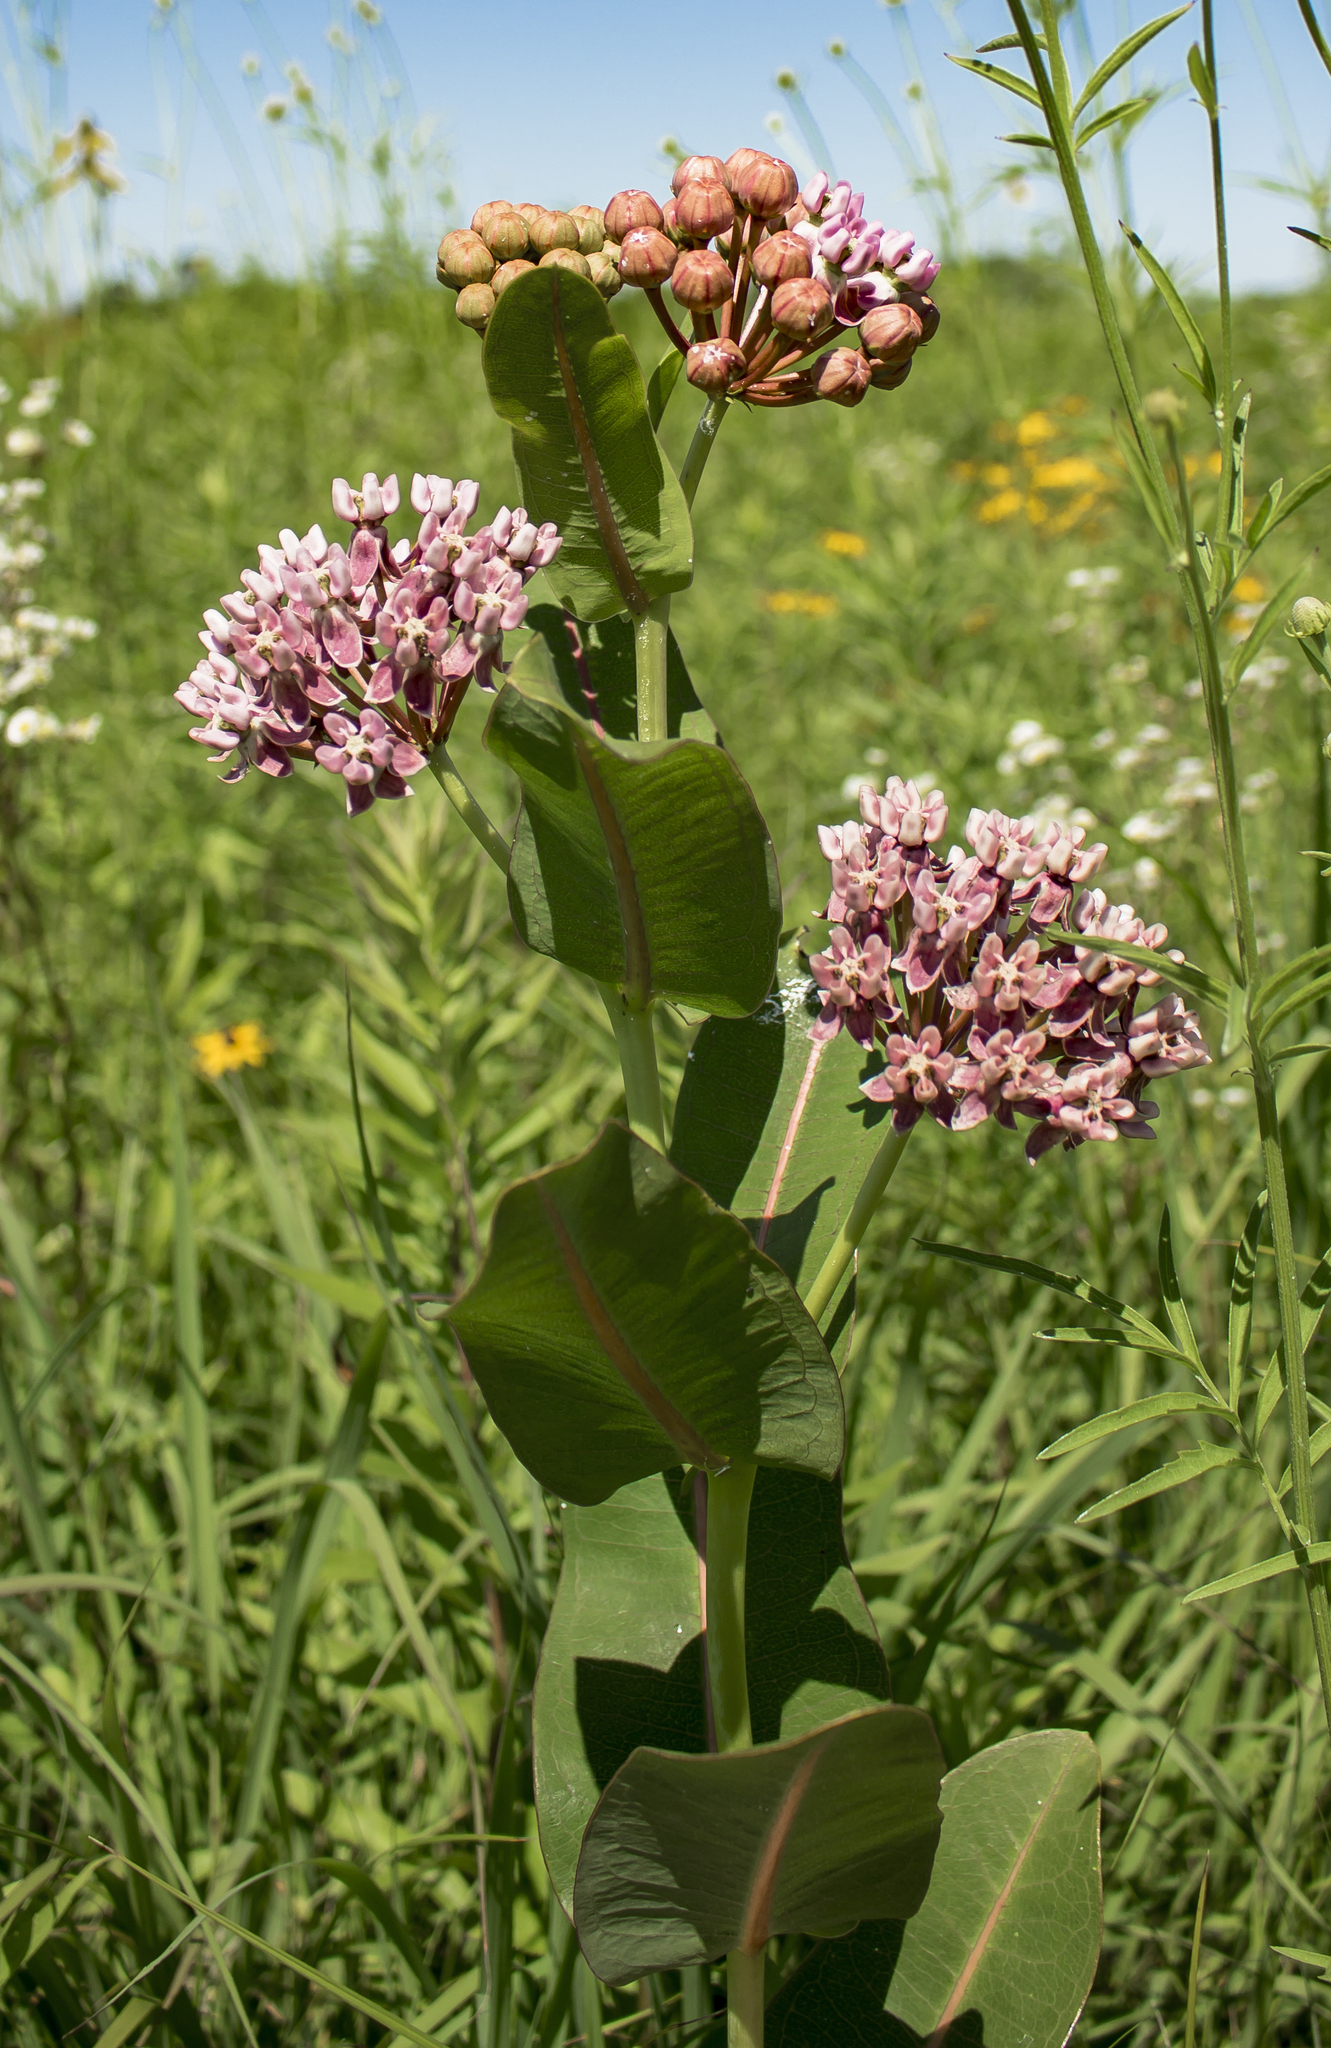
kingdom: Plantae
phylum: Tracheophyta
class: Magnoliopsida
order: Gentianales
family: Apocynaceae
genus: Asclepias
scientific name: Asclepias sullivantii
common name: Prairie milkweed
